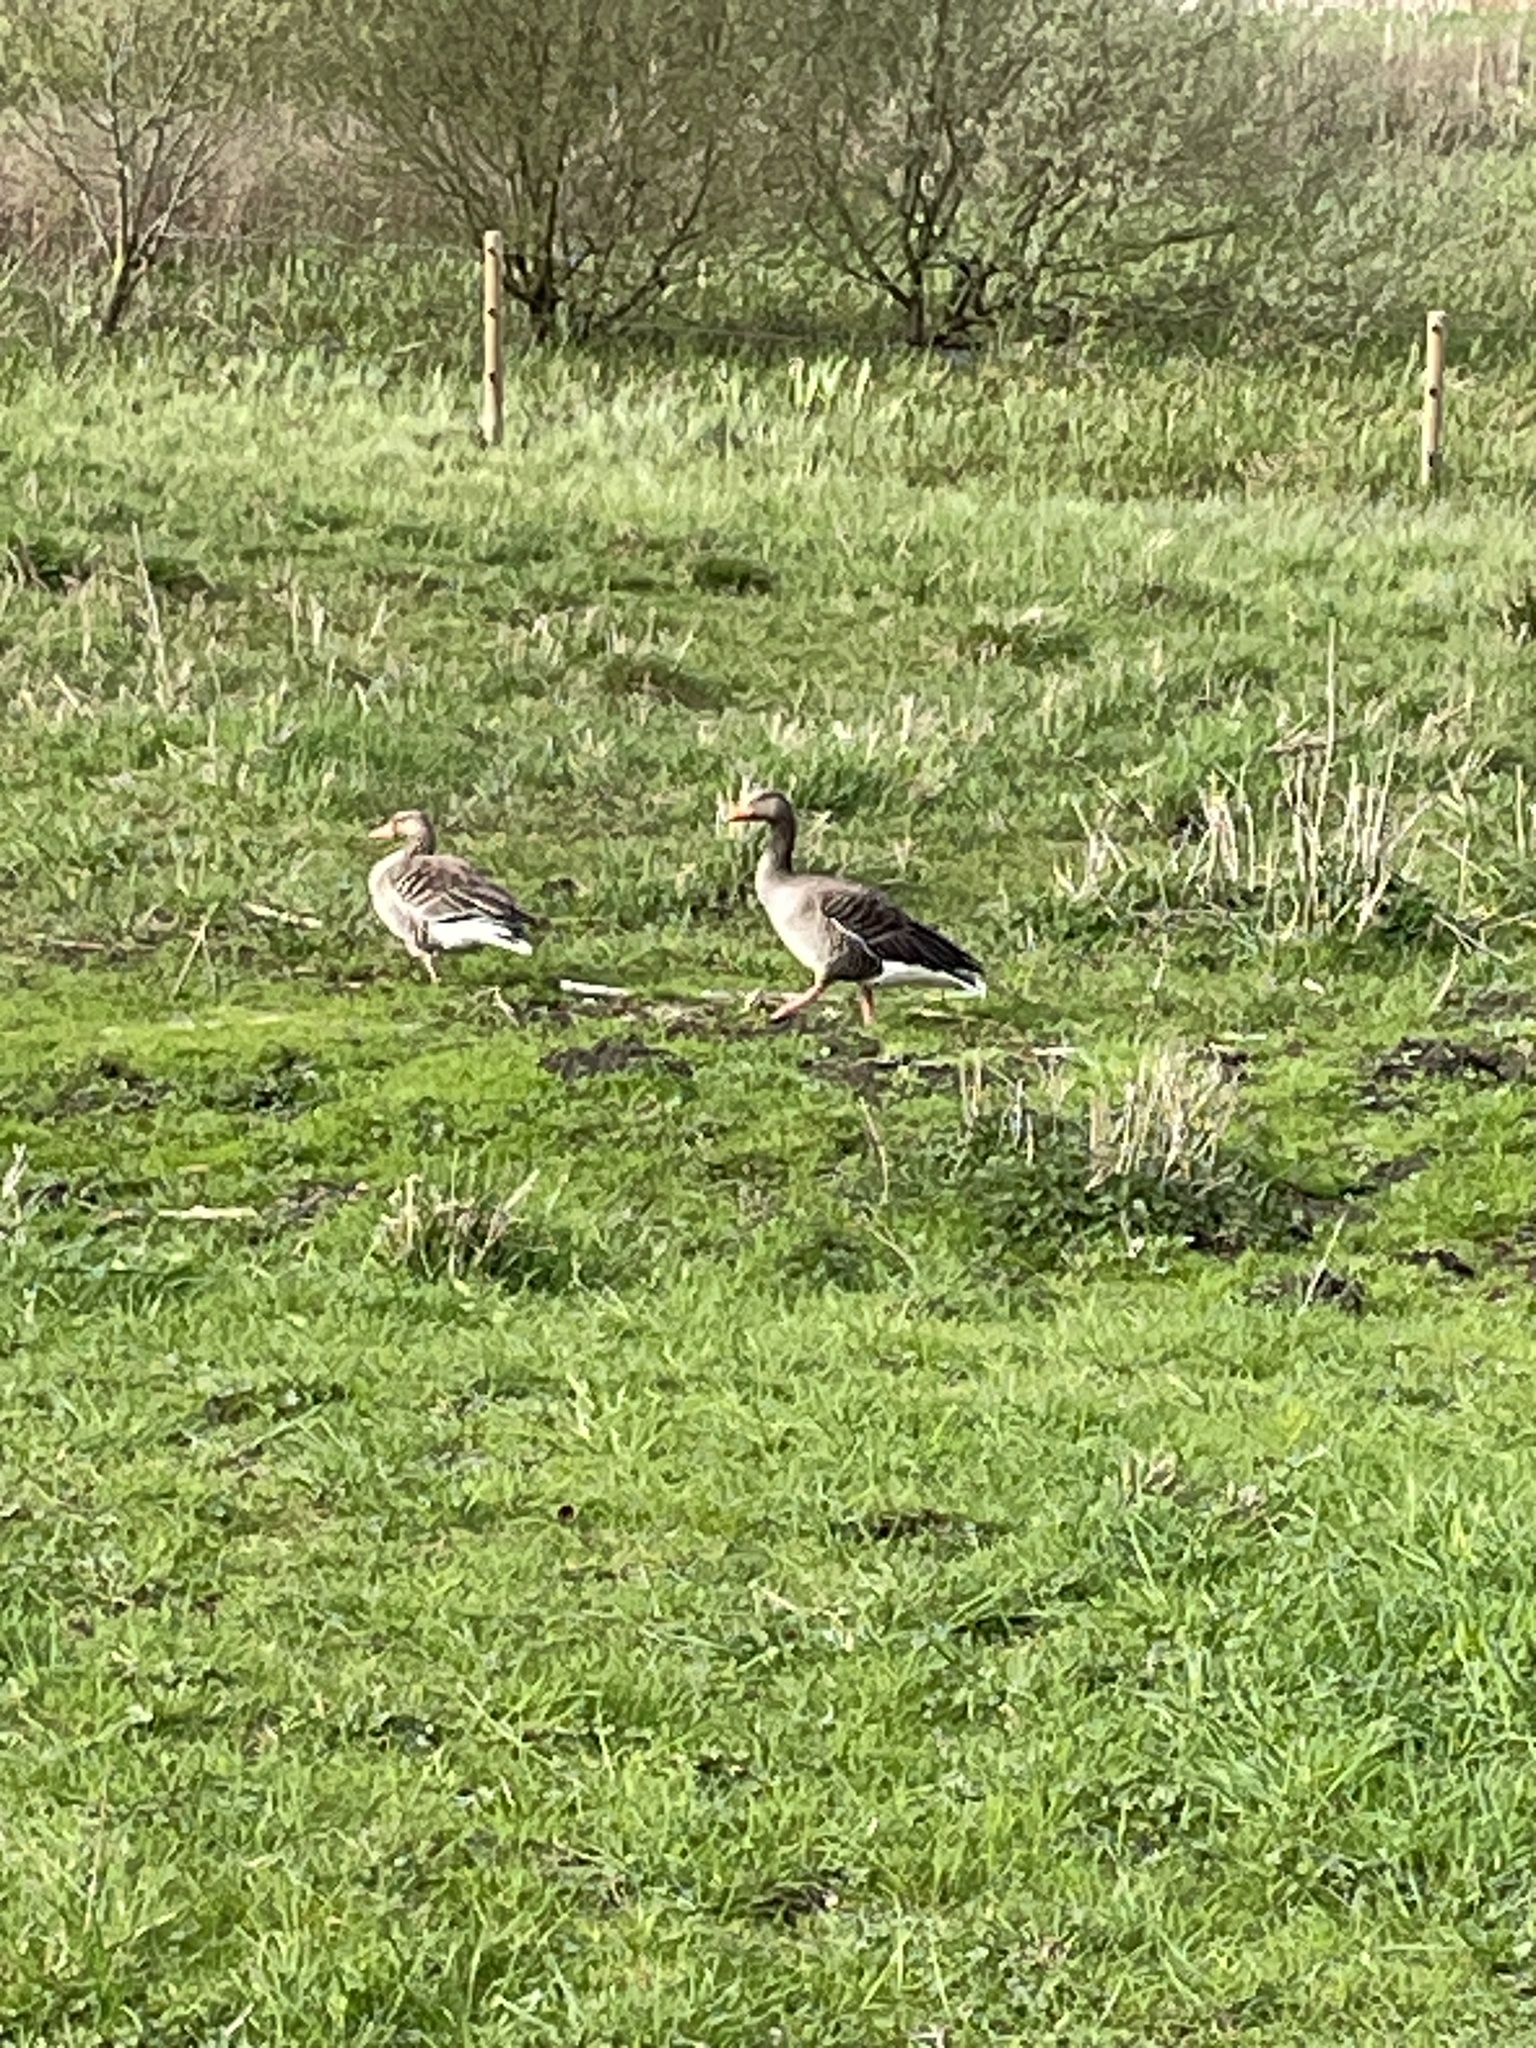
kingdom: Animalia
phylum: Chordata
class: Aves
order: Anseriformes
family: Anatidae
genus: Anser
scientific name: Anser anser
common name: Greylag goose
